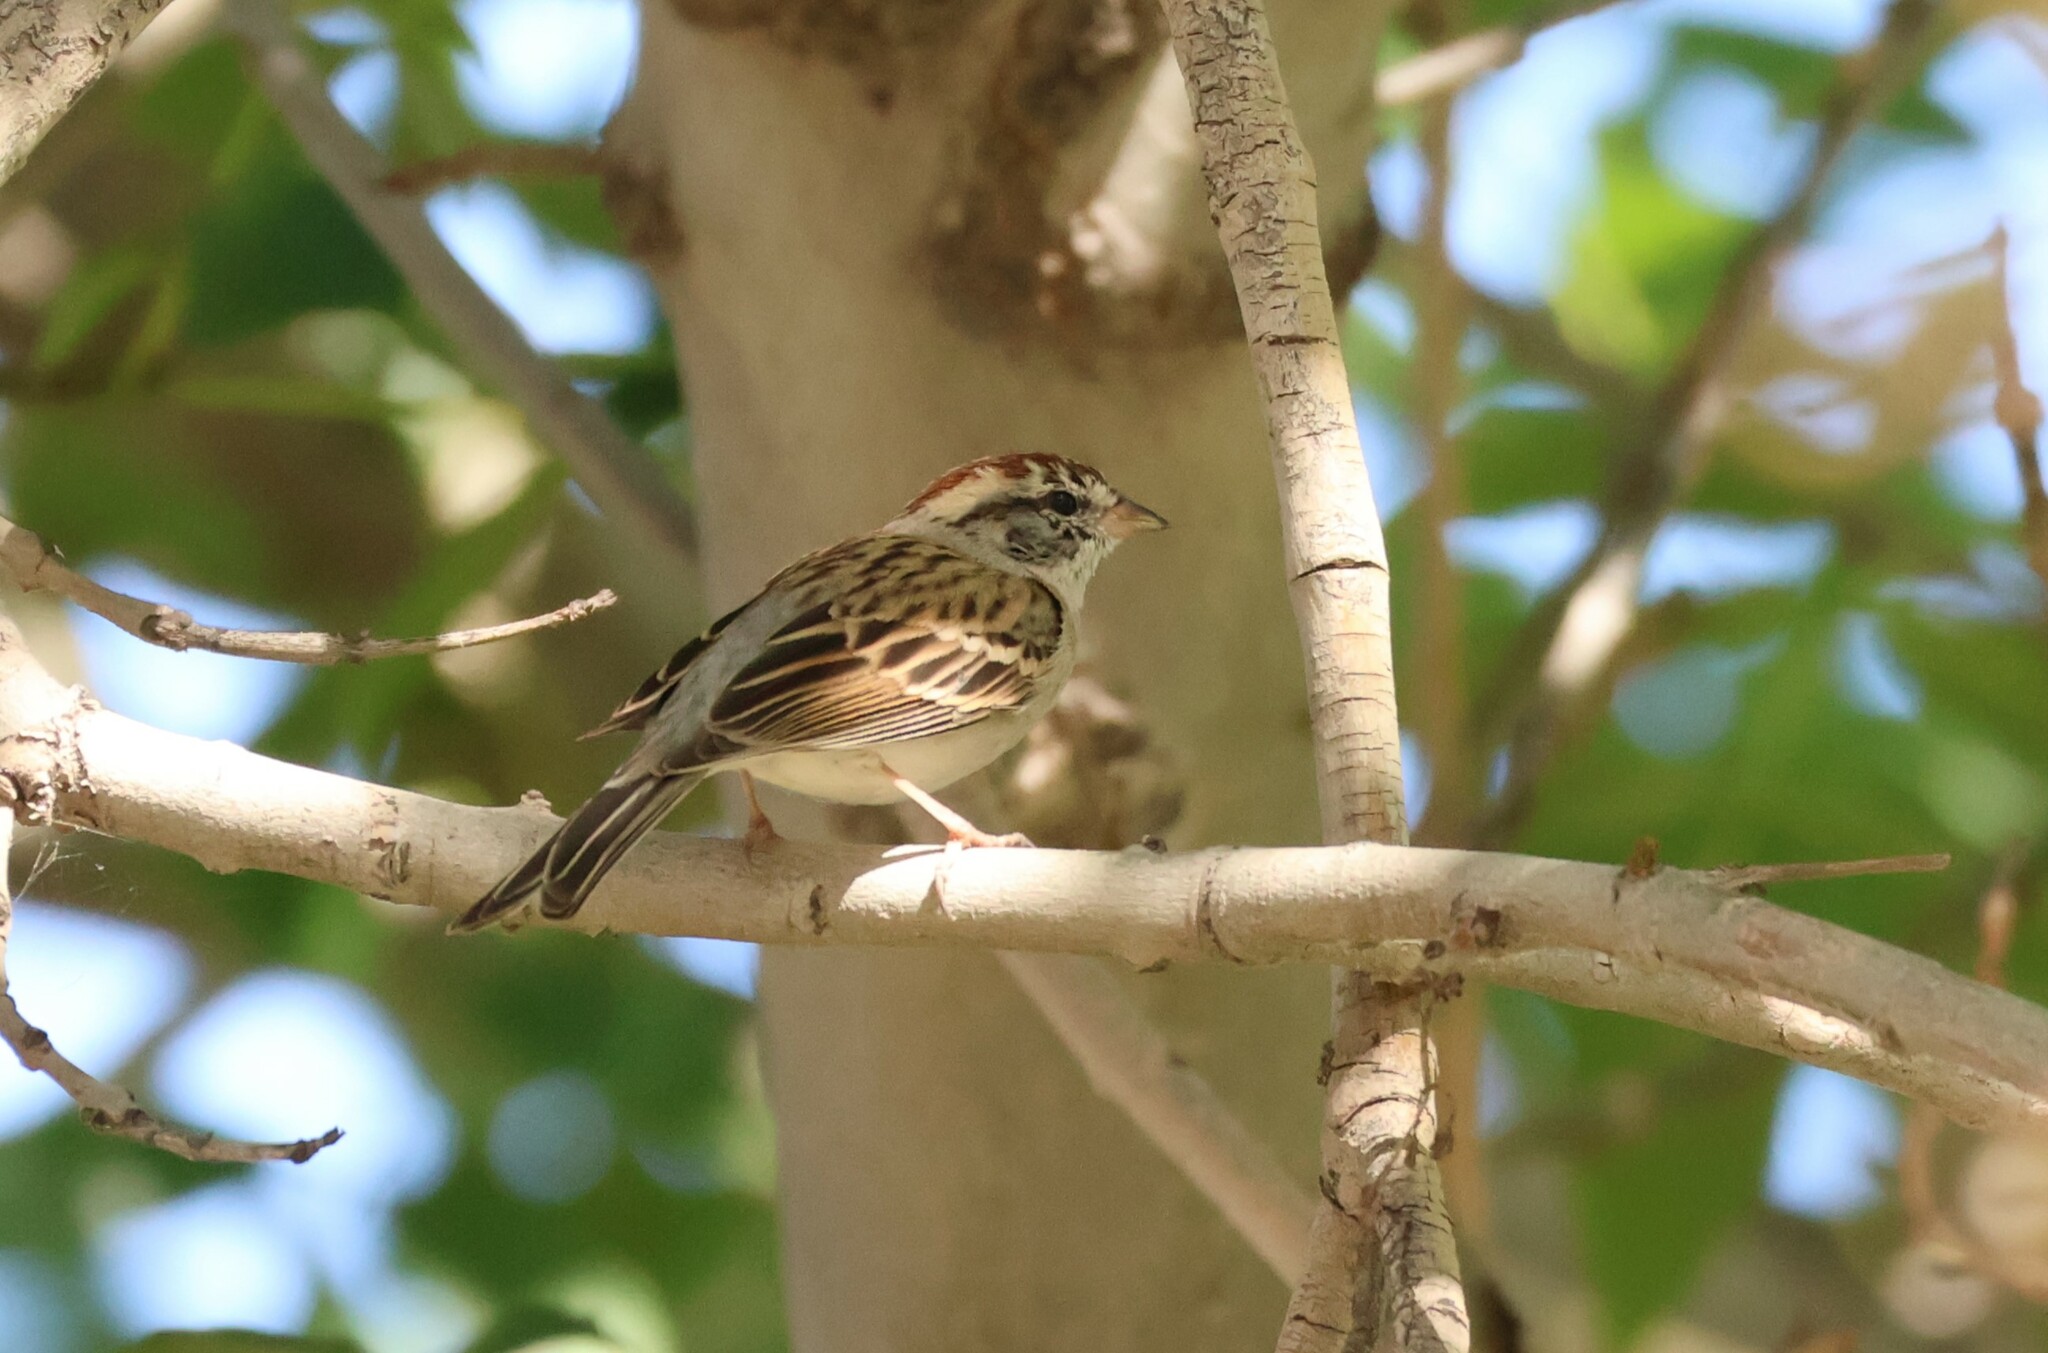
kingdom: Animalia
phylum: Chordata
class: Aves
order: Passeriformes
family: Passerellidae
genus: Spizella
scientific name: Spizella passerina
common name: Chipping sparrow
